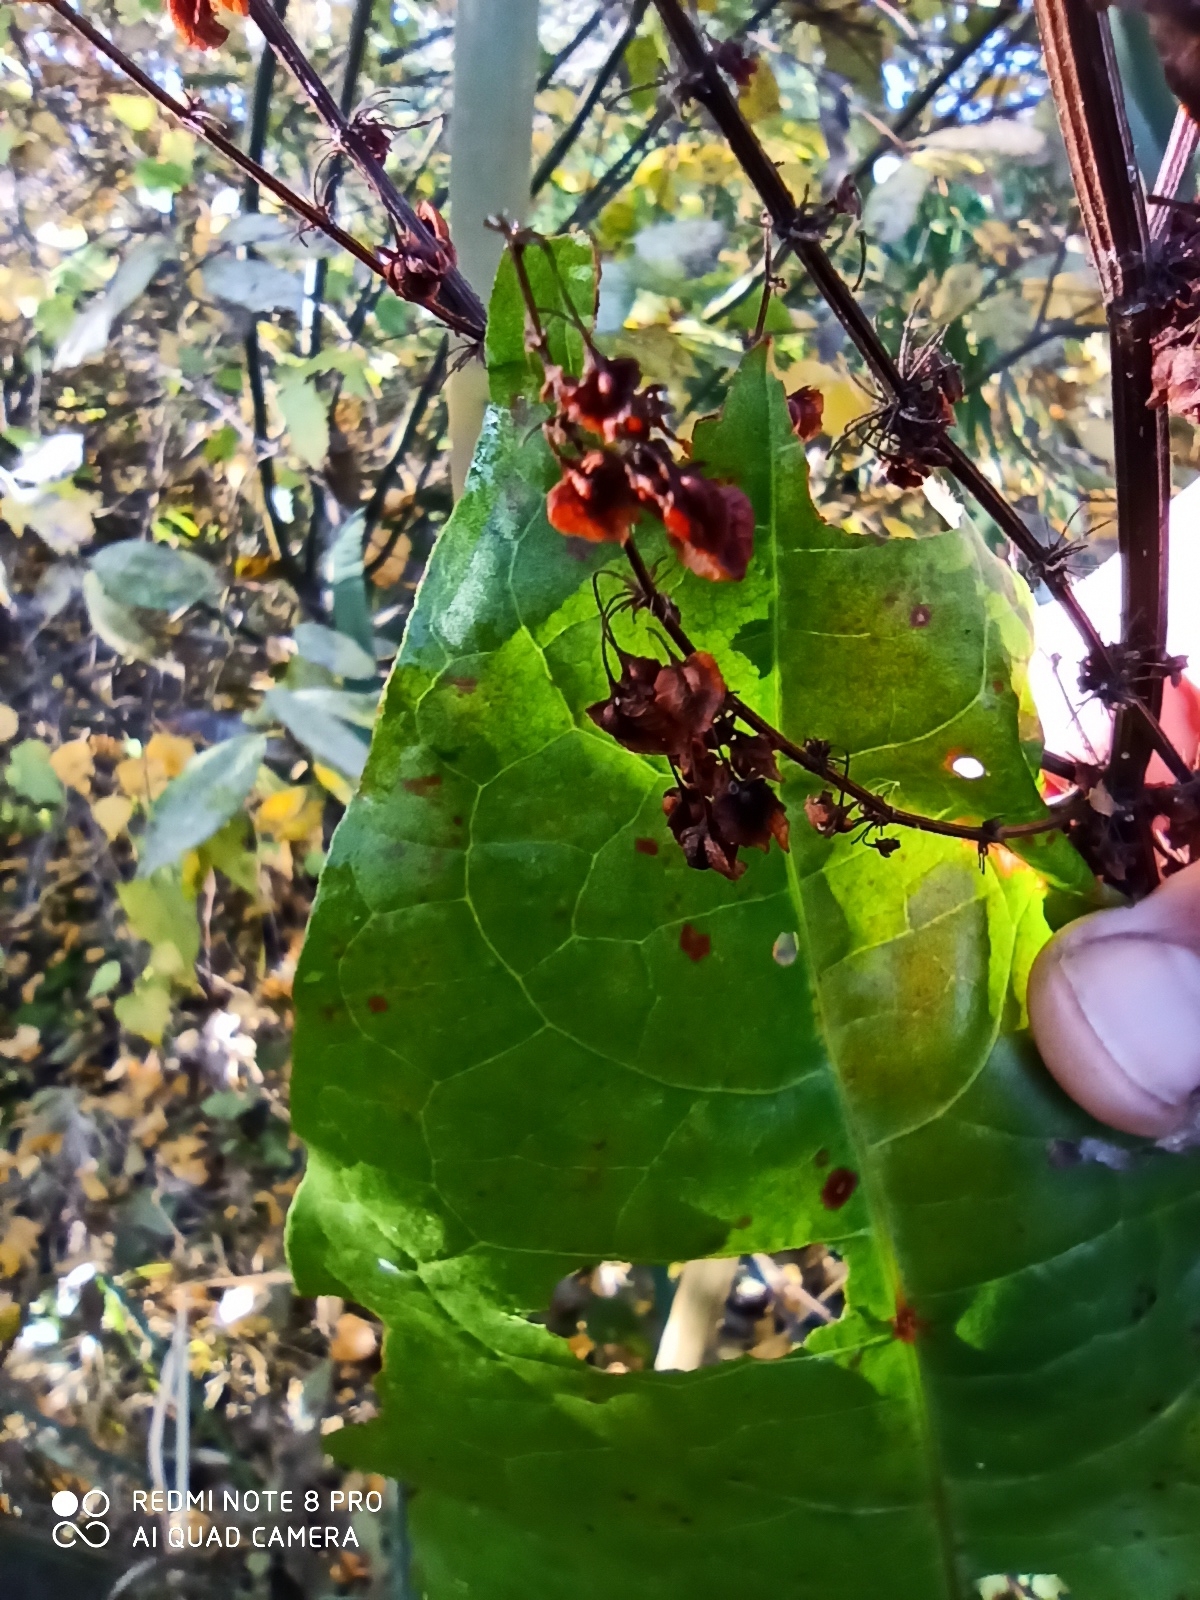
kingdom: Plantae
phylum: Tracheophyta
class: Magnoliopsida
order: Caryophyllales
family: Polygonaceae
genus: Rumex
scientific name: Rumex aquaticus
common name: Scottish dock
